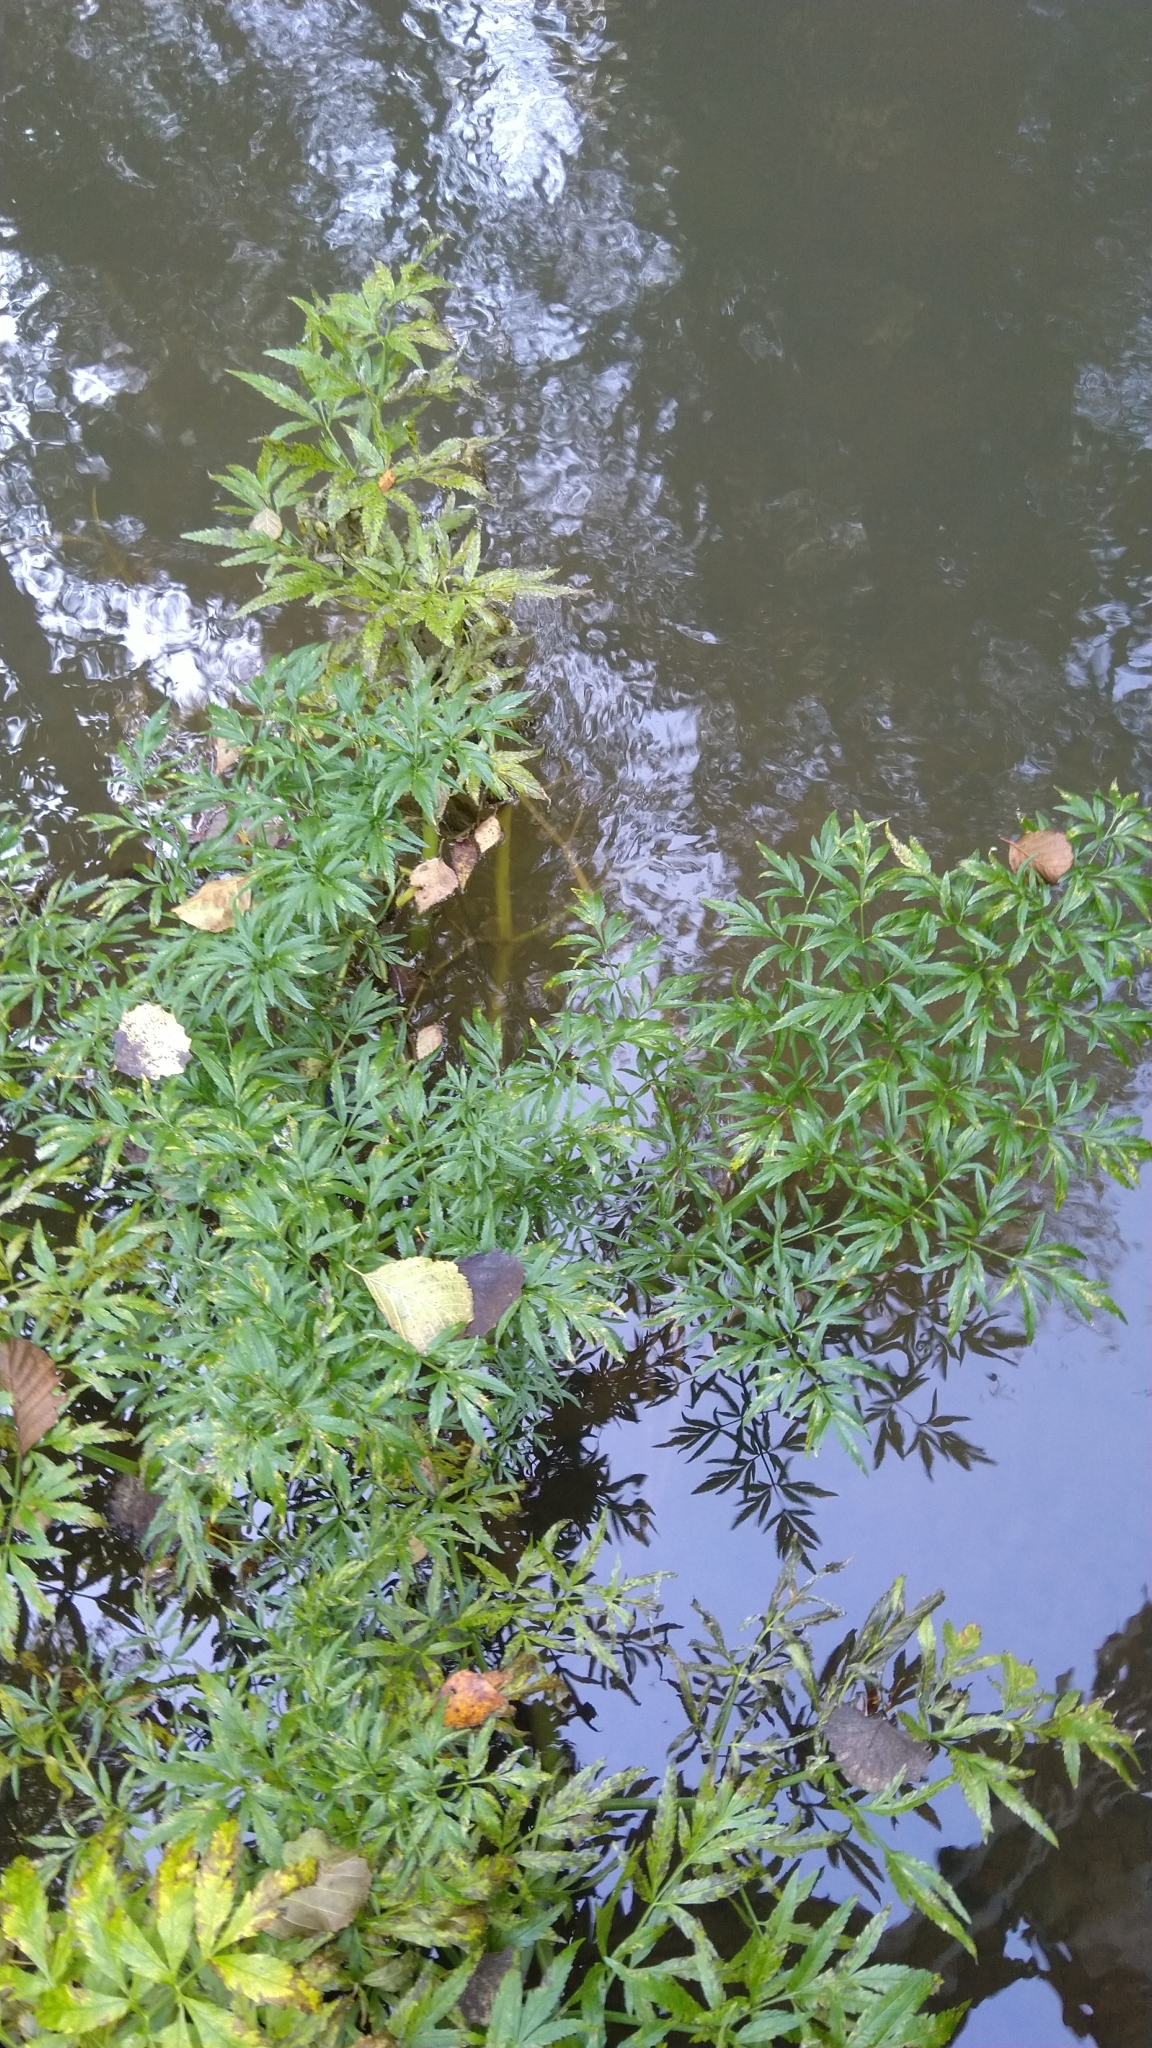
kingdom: Plantae
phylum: Tracheophyta
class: Magnoliopsida
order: Apiales
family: Apiaceae
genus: Cicuta
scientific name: Cicuta virosa
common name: Cowbane
